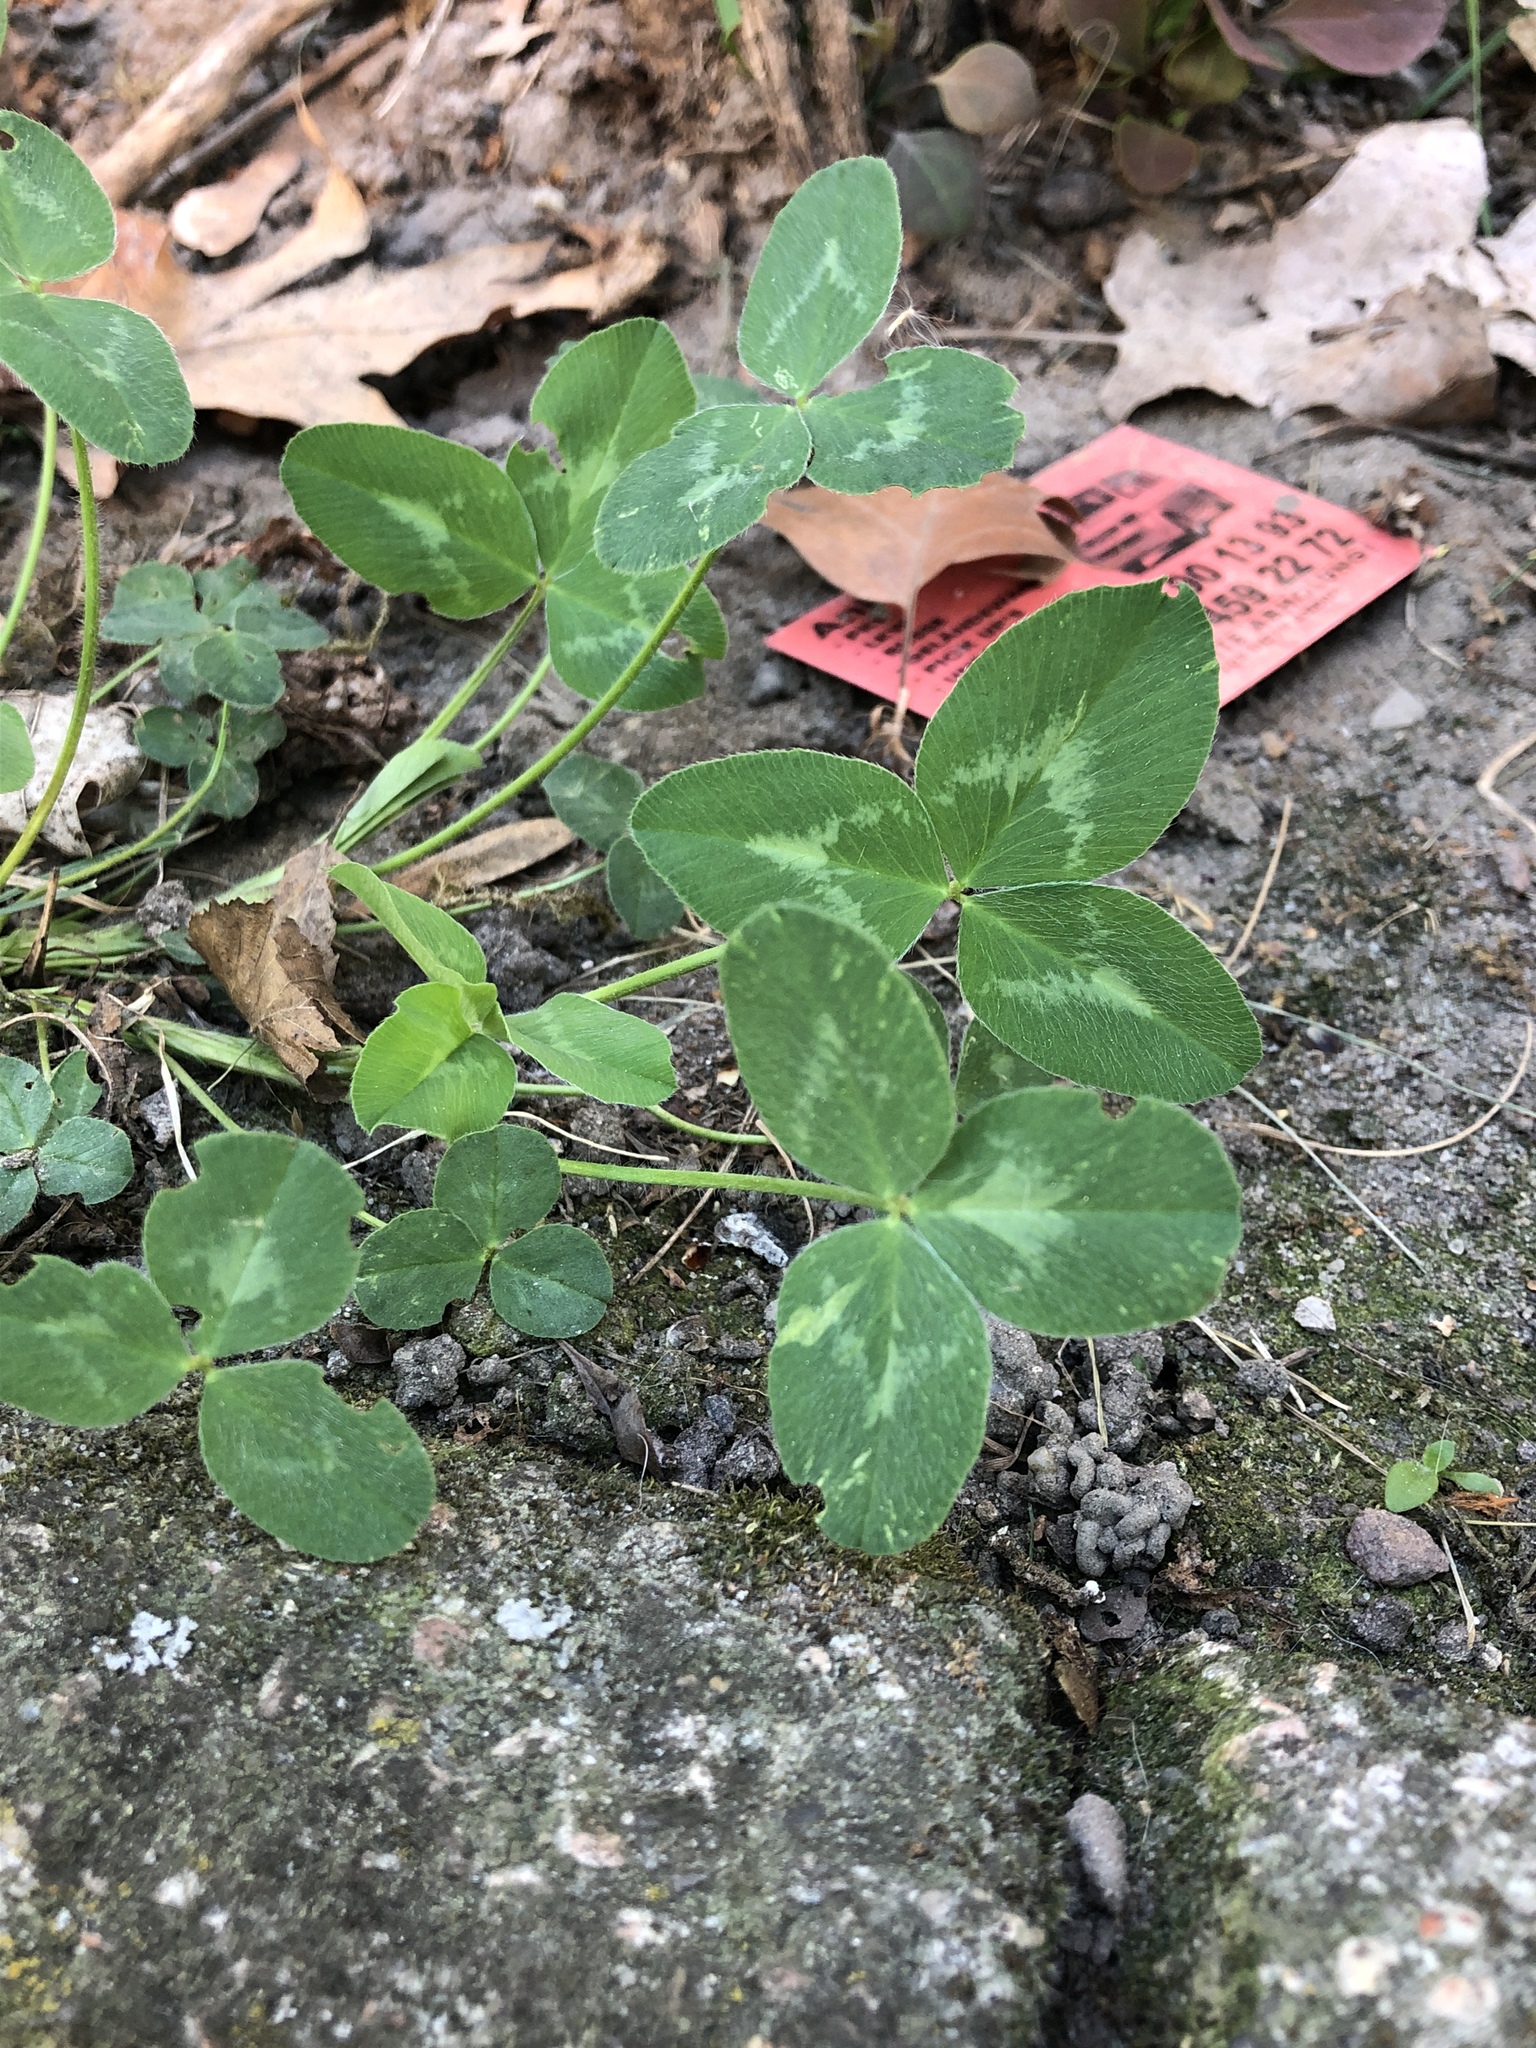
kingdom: Plantae
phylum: Tracheophyta
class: Magnoliopsida
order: Fabales
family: Fabaceae
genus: Trifolium
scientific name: Trifolium pratense
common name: Red clover
